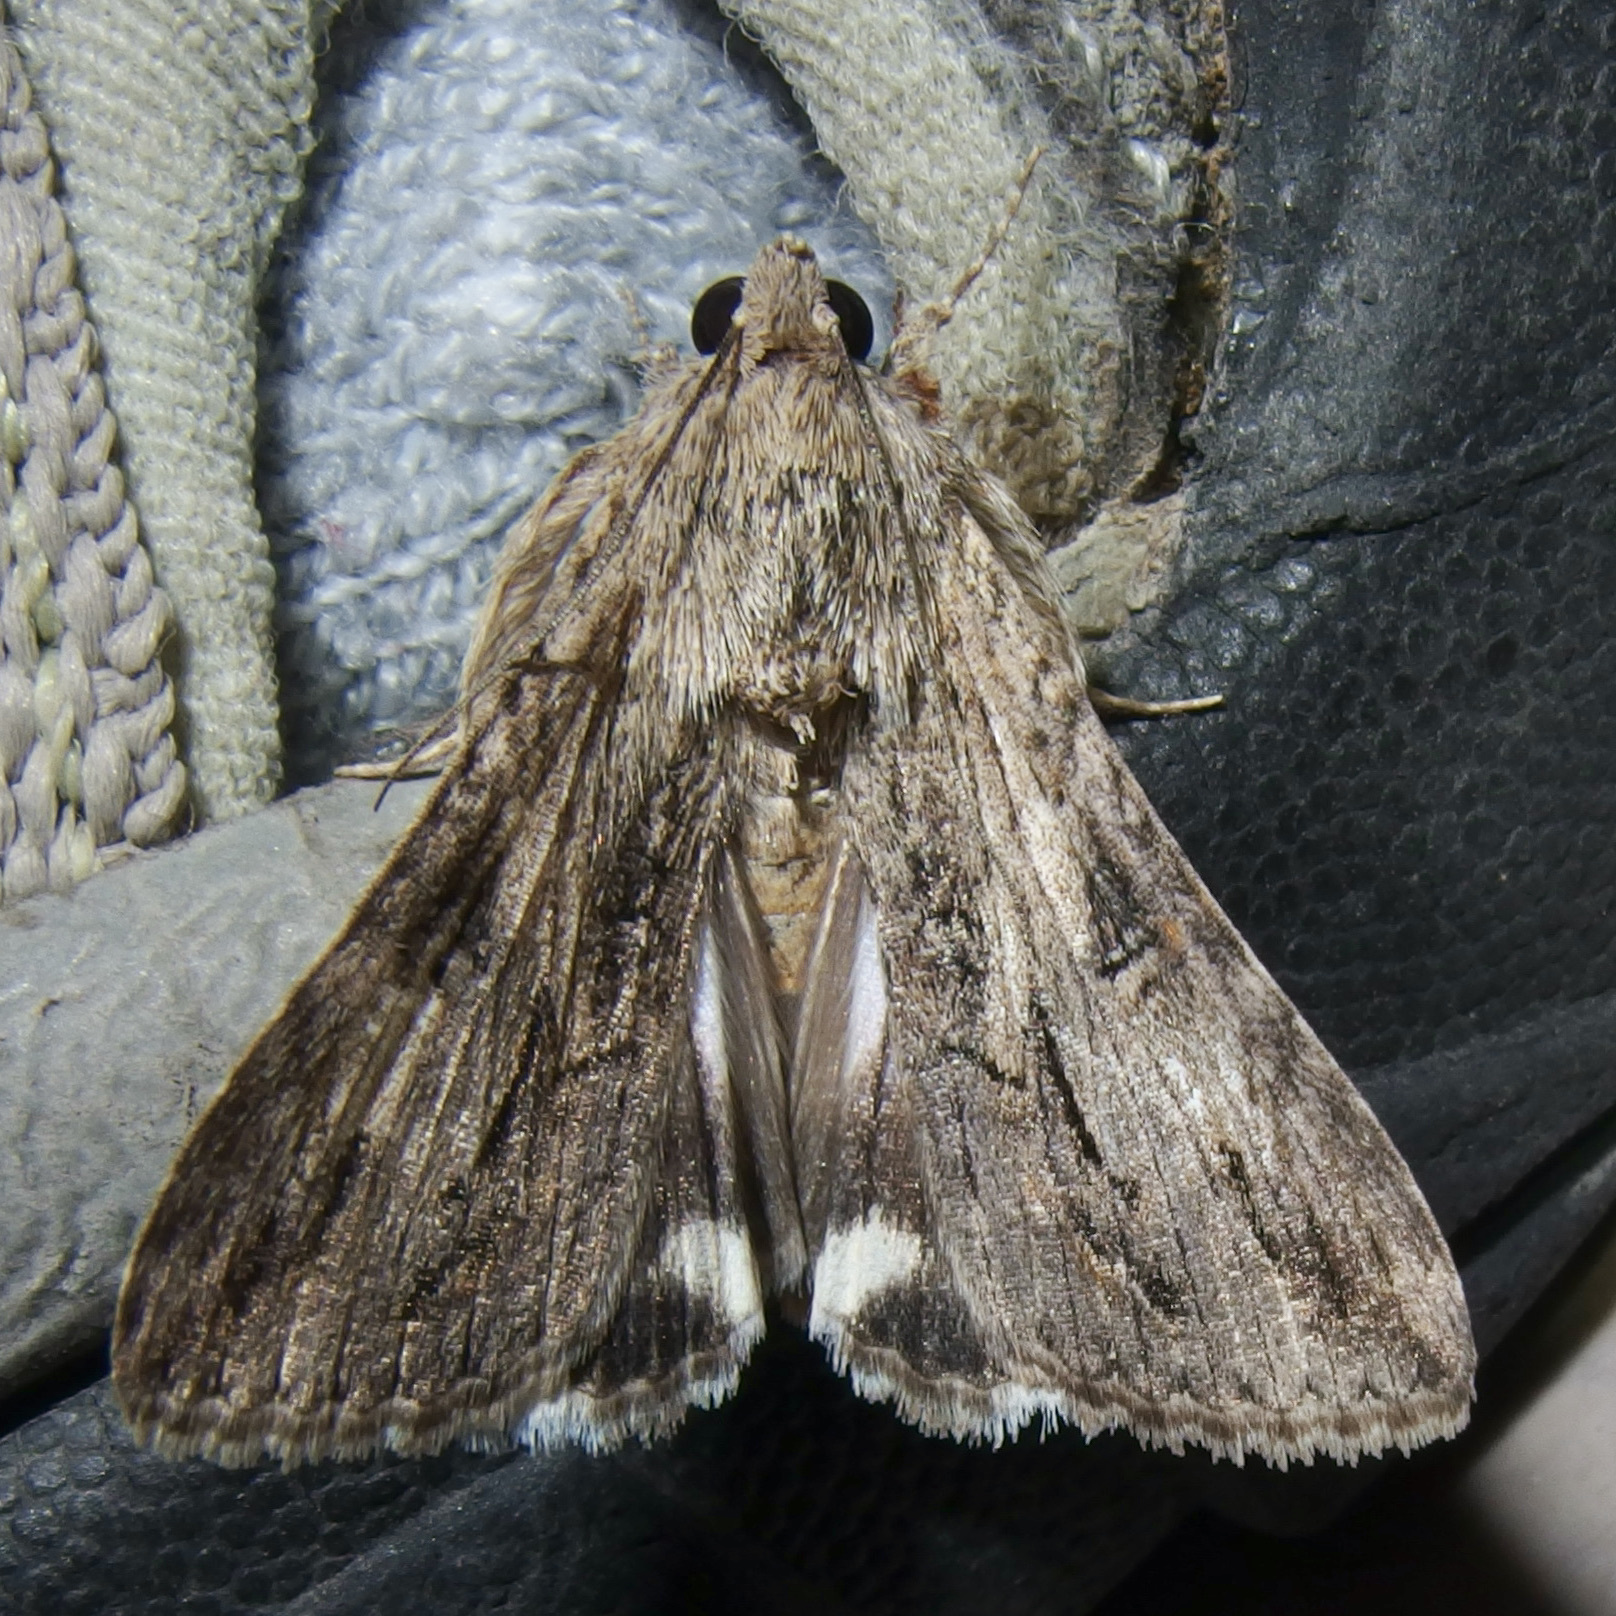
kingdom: Animalia
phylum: Arthropoda
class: Insecta
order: Lepidoptera
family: Erebidae
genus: Melipotis
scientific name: Melipotis jucunda
